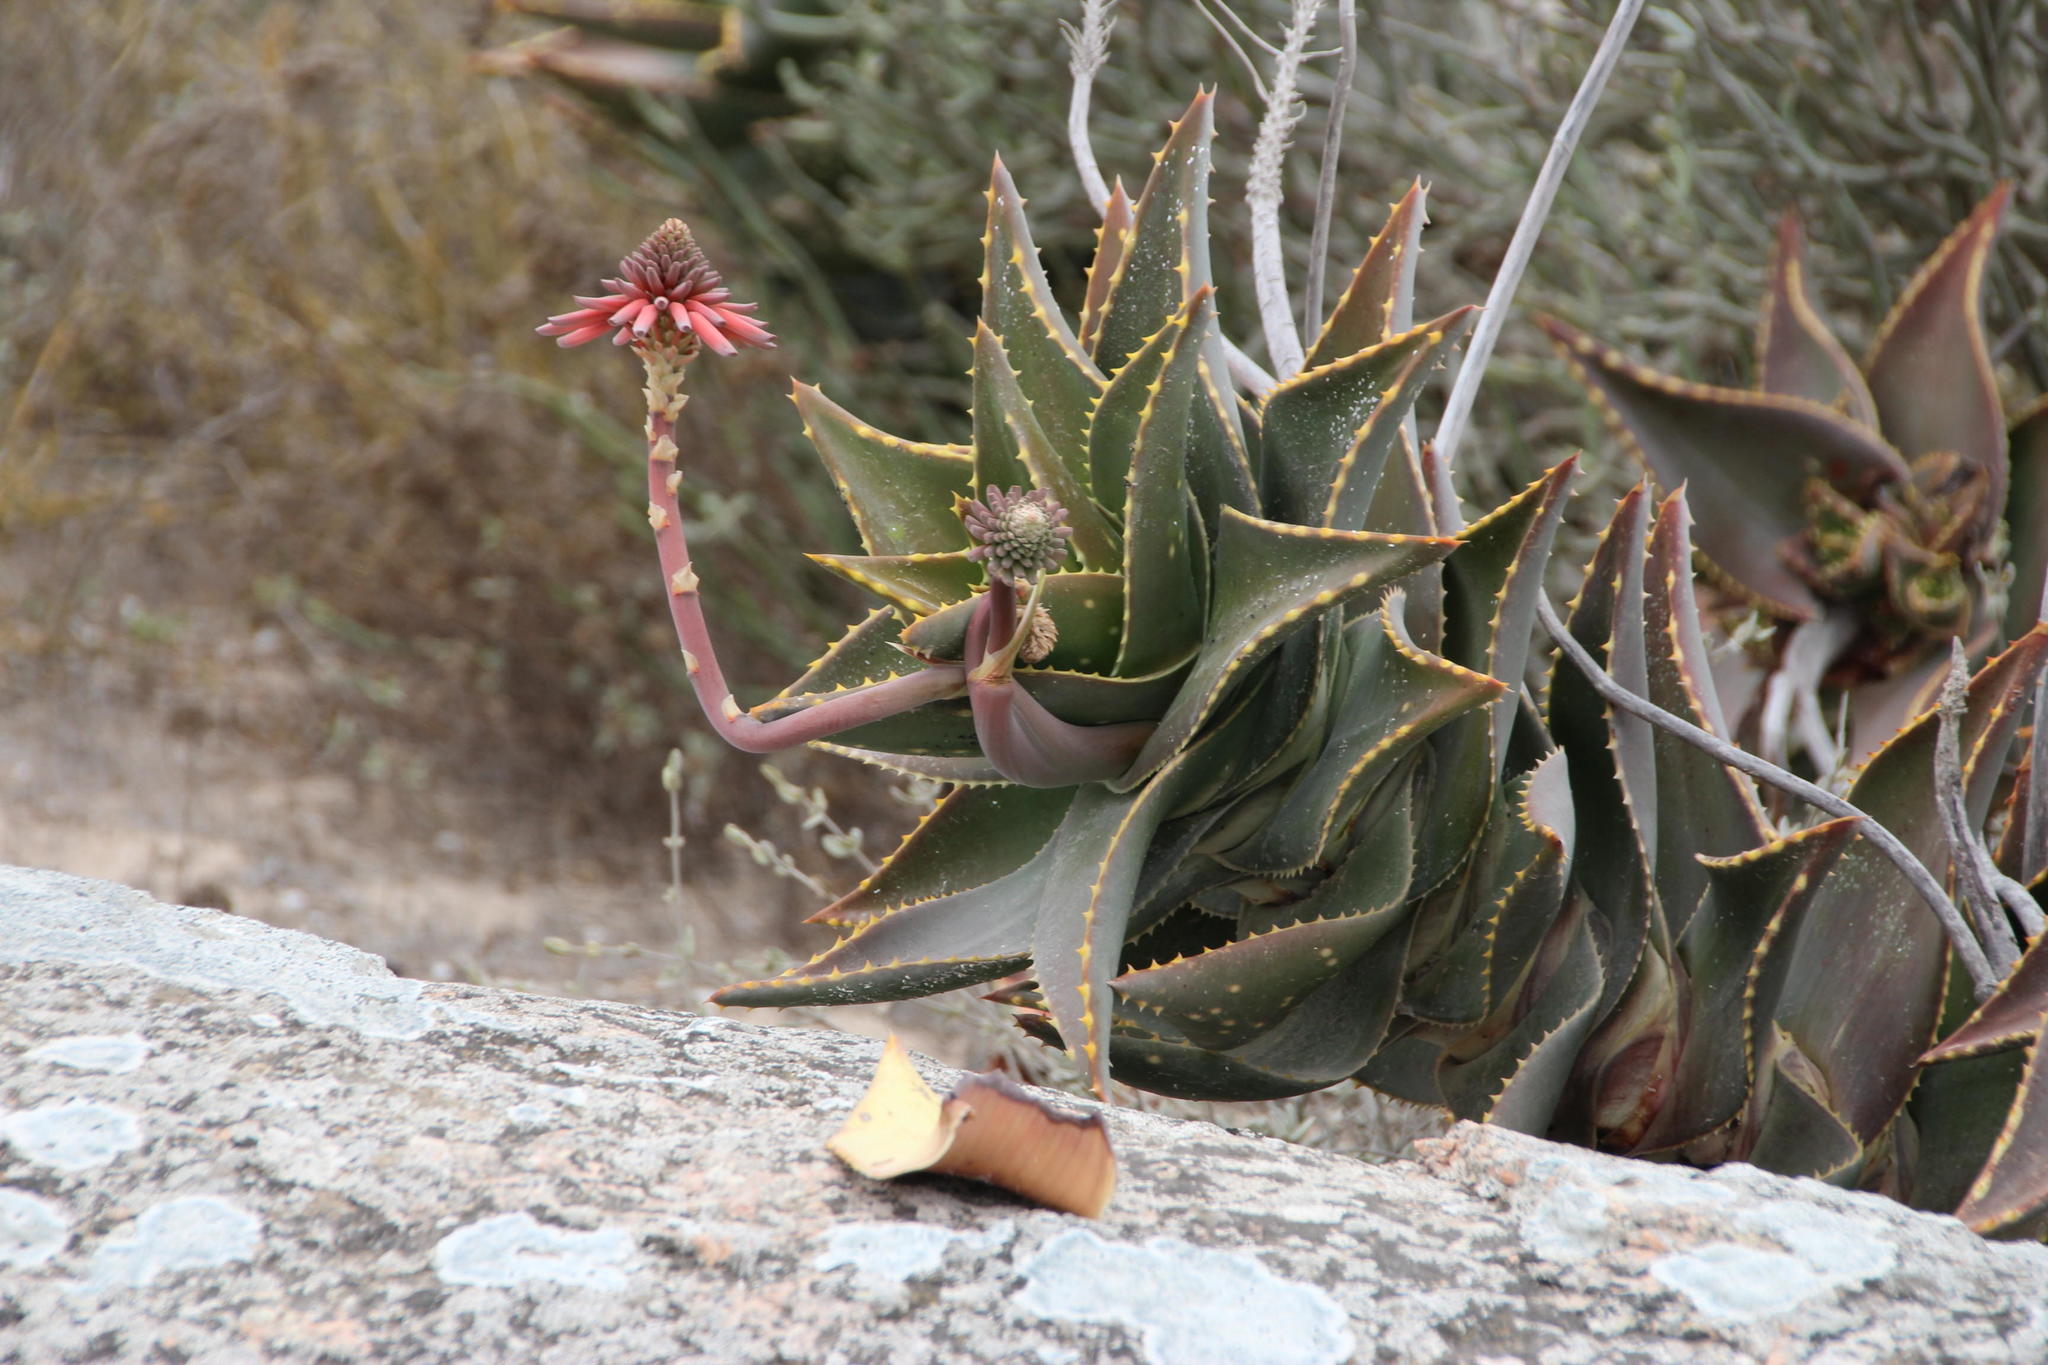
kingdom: Plantae
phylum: Tracheophyta
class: Liliopsida
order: Asparagales
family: Asphodelaceae
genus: Aloe
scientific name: Aloe distans
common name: Short-leaved aloe
